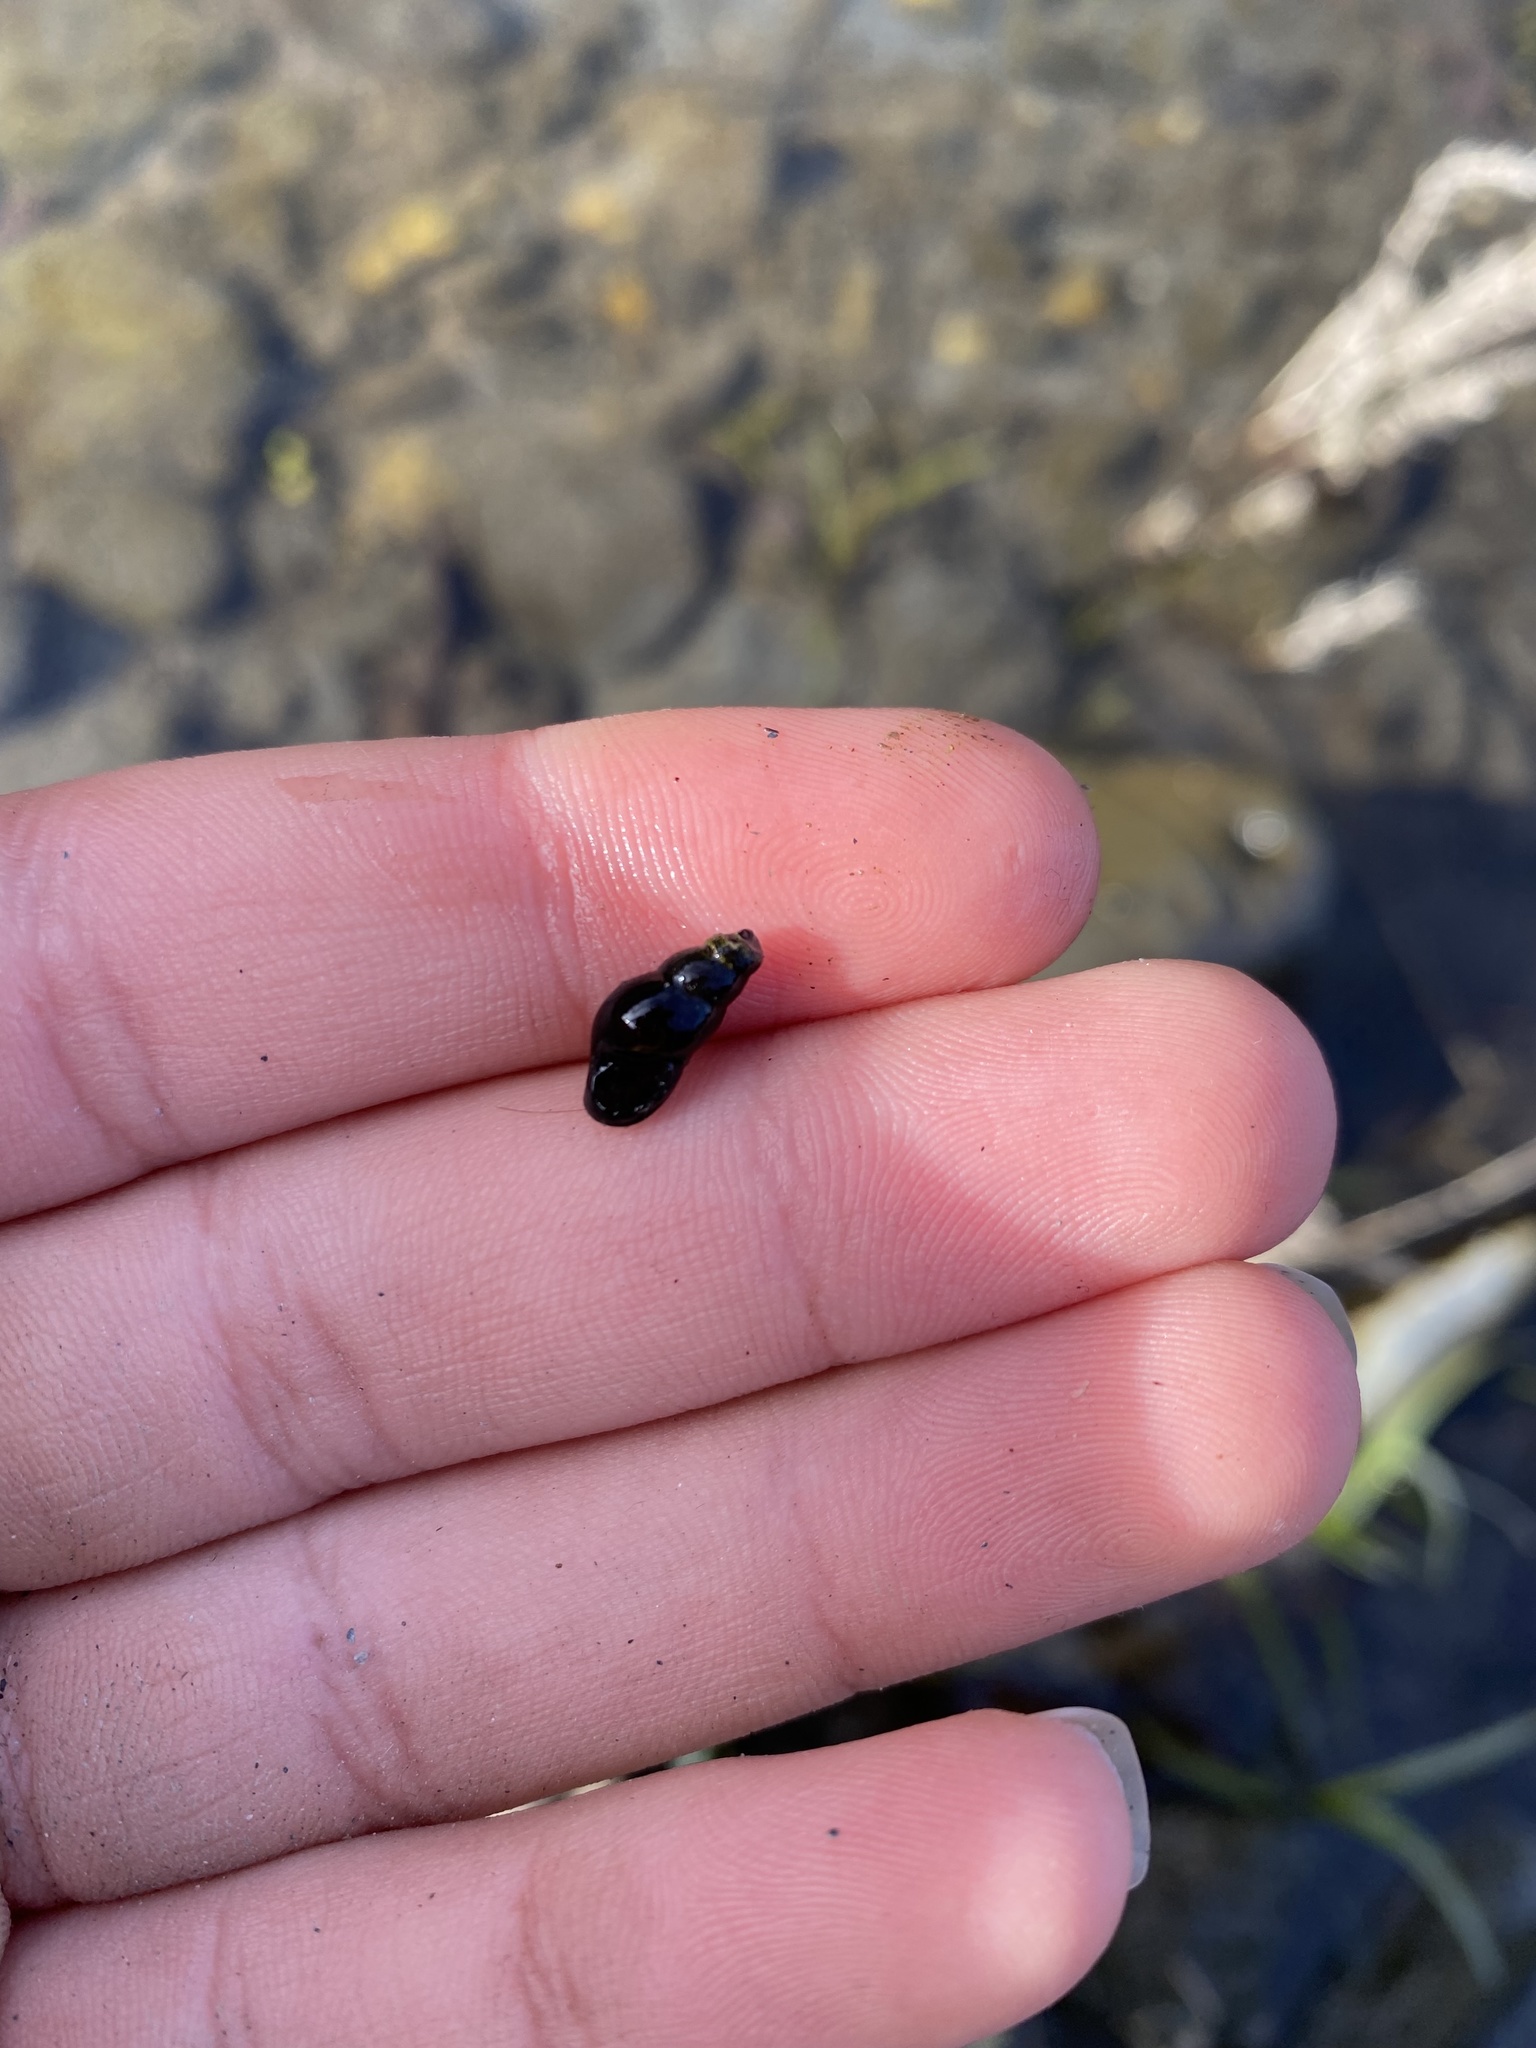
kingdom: Animalia
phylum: Mollusca
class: Gastropoda
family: Semisulcospiridae
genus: Juga
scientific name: Juga nigrina
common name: Black juga
